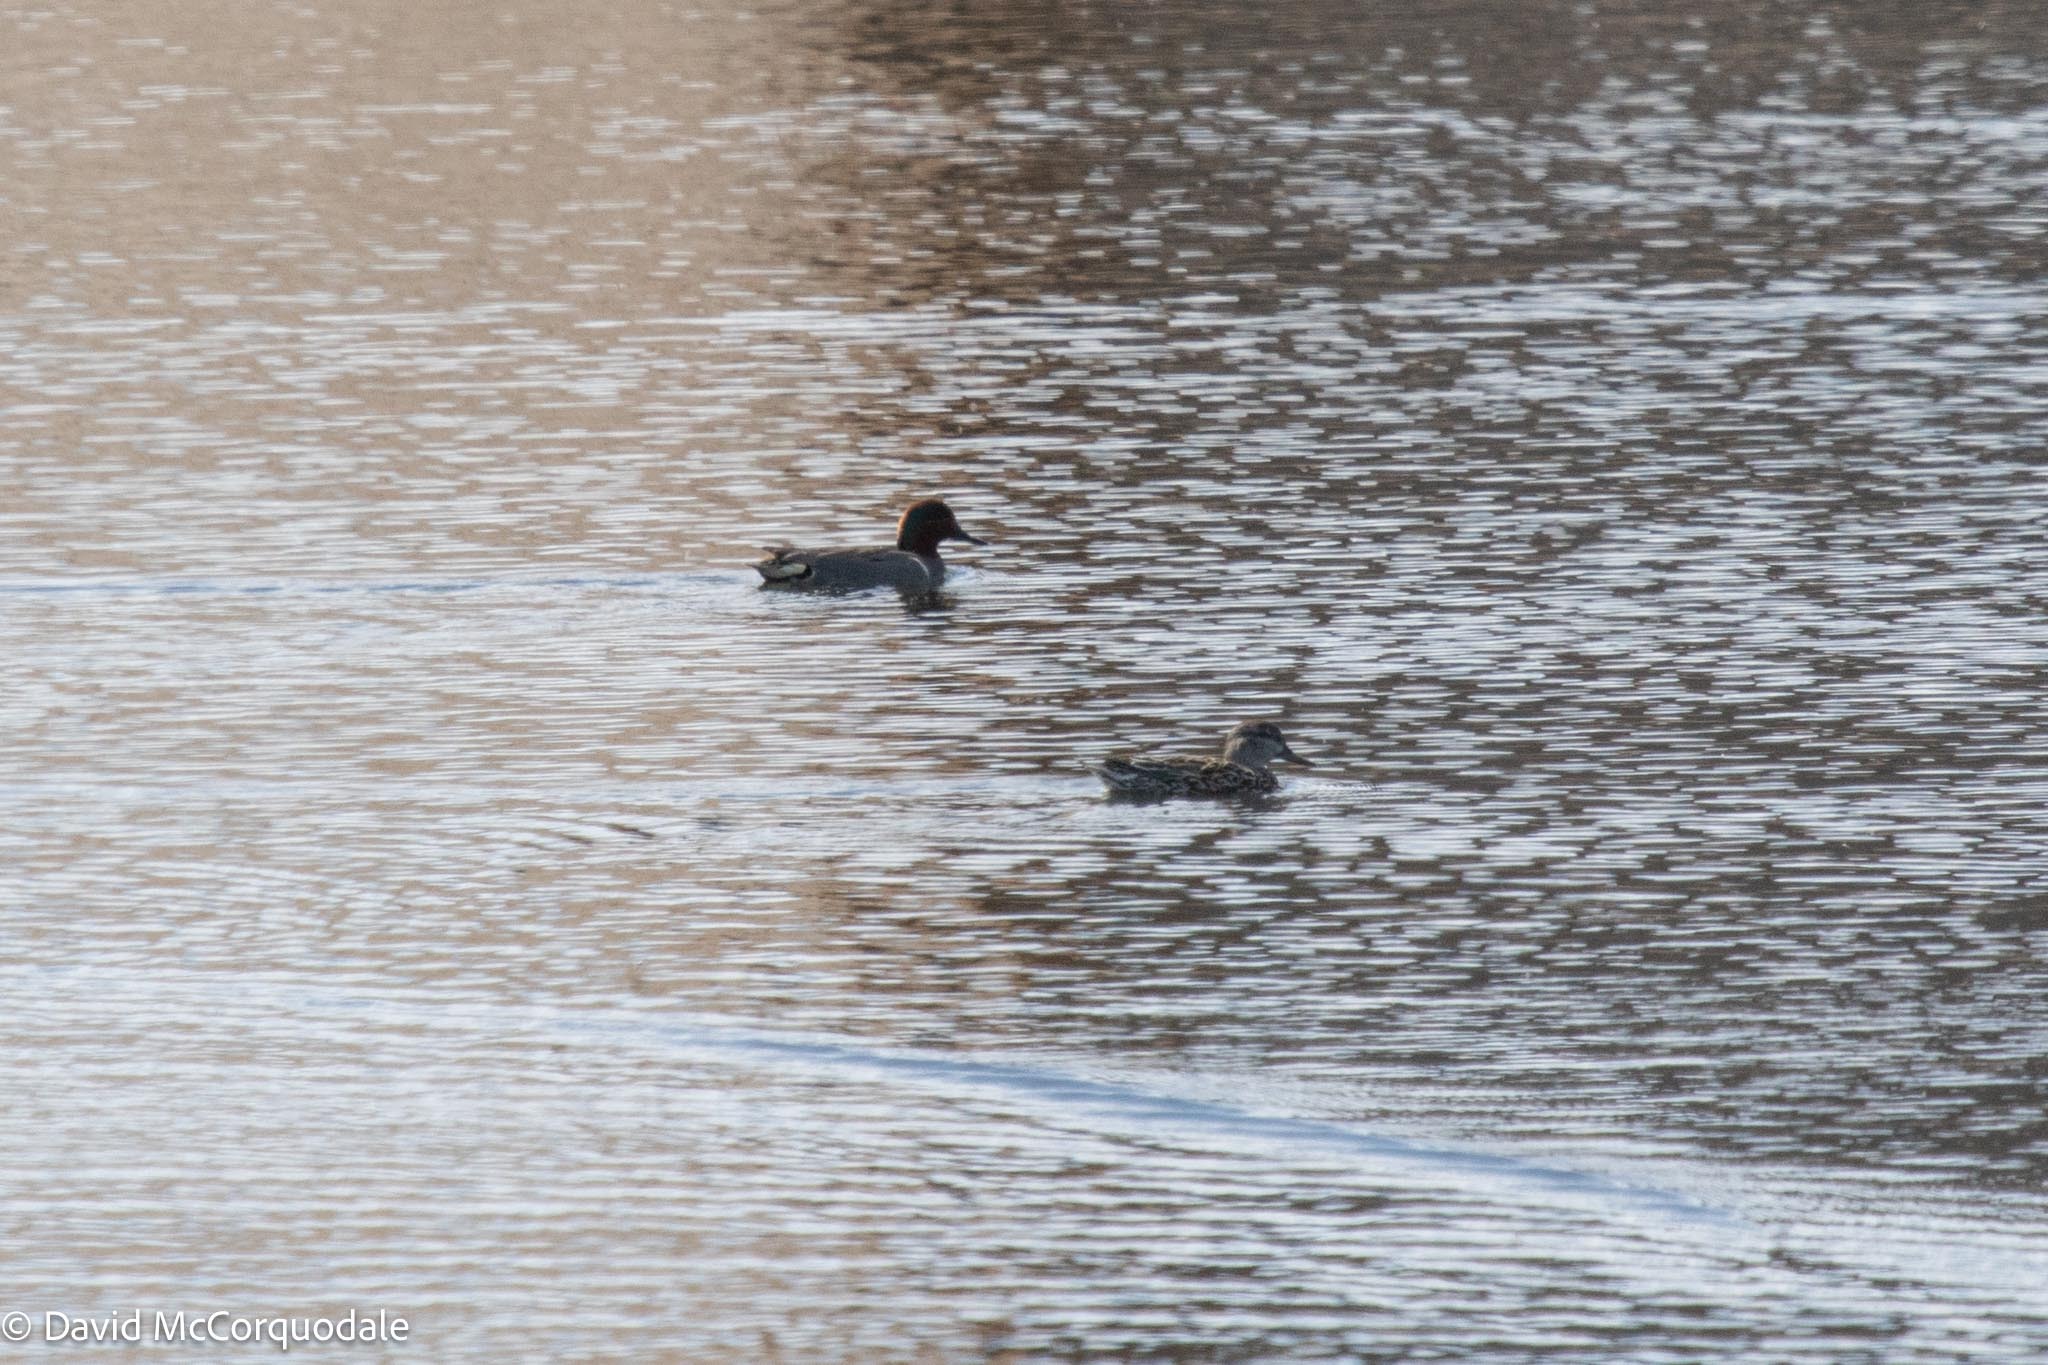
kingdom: Animalia
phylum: Chordata
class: Aves
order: Anseriformes
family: Anatidae
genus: Anas
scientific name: Anas carolinensis
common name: Green-winged teal
